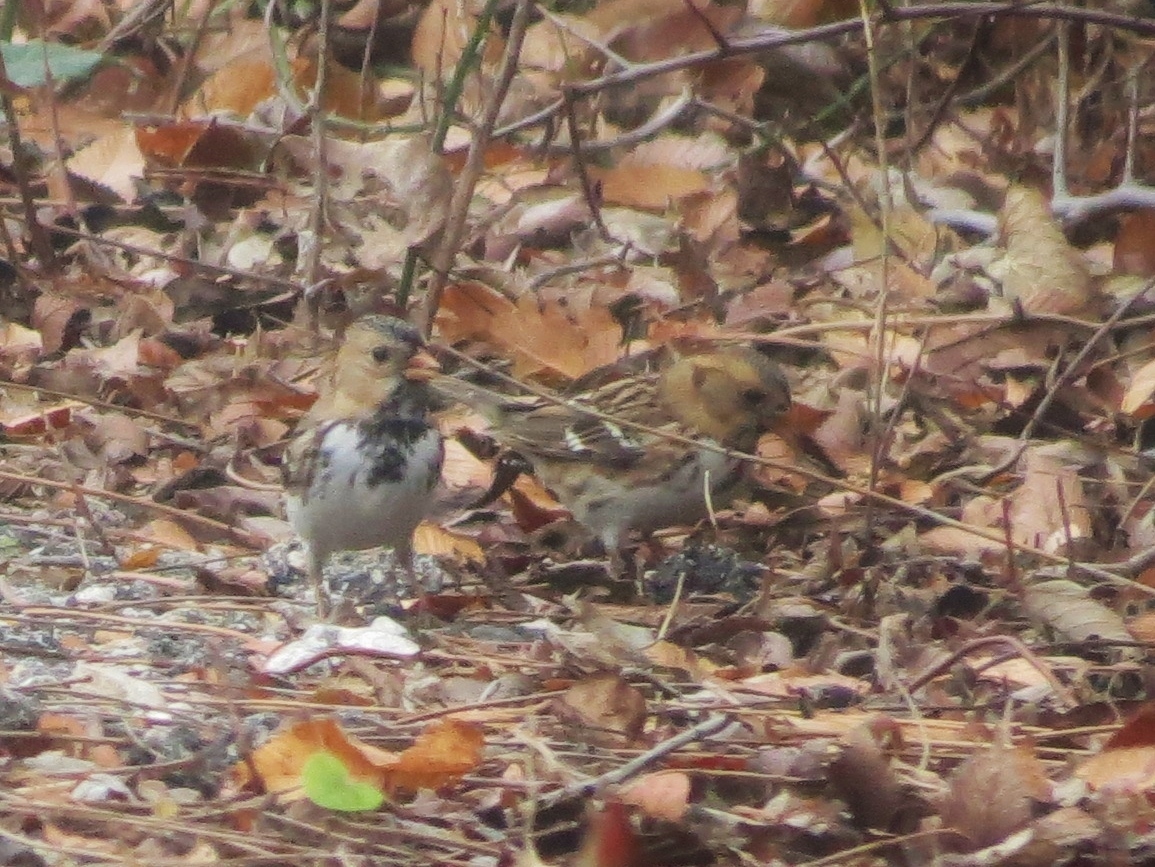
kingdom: Animalia
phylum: Chordata
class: Aves
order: Passeriformes
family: Passerellidae
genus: Zonotrichia
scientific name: Zonotrichia querula
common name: Harris's sparrow
